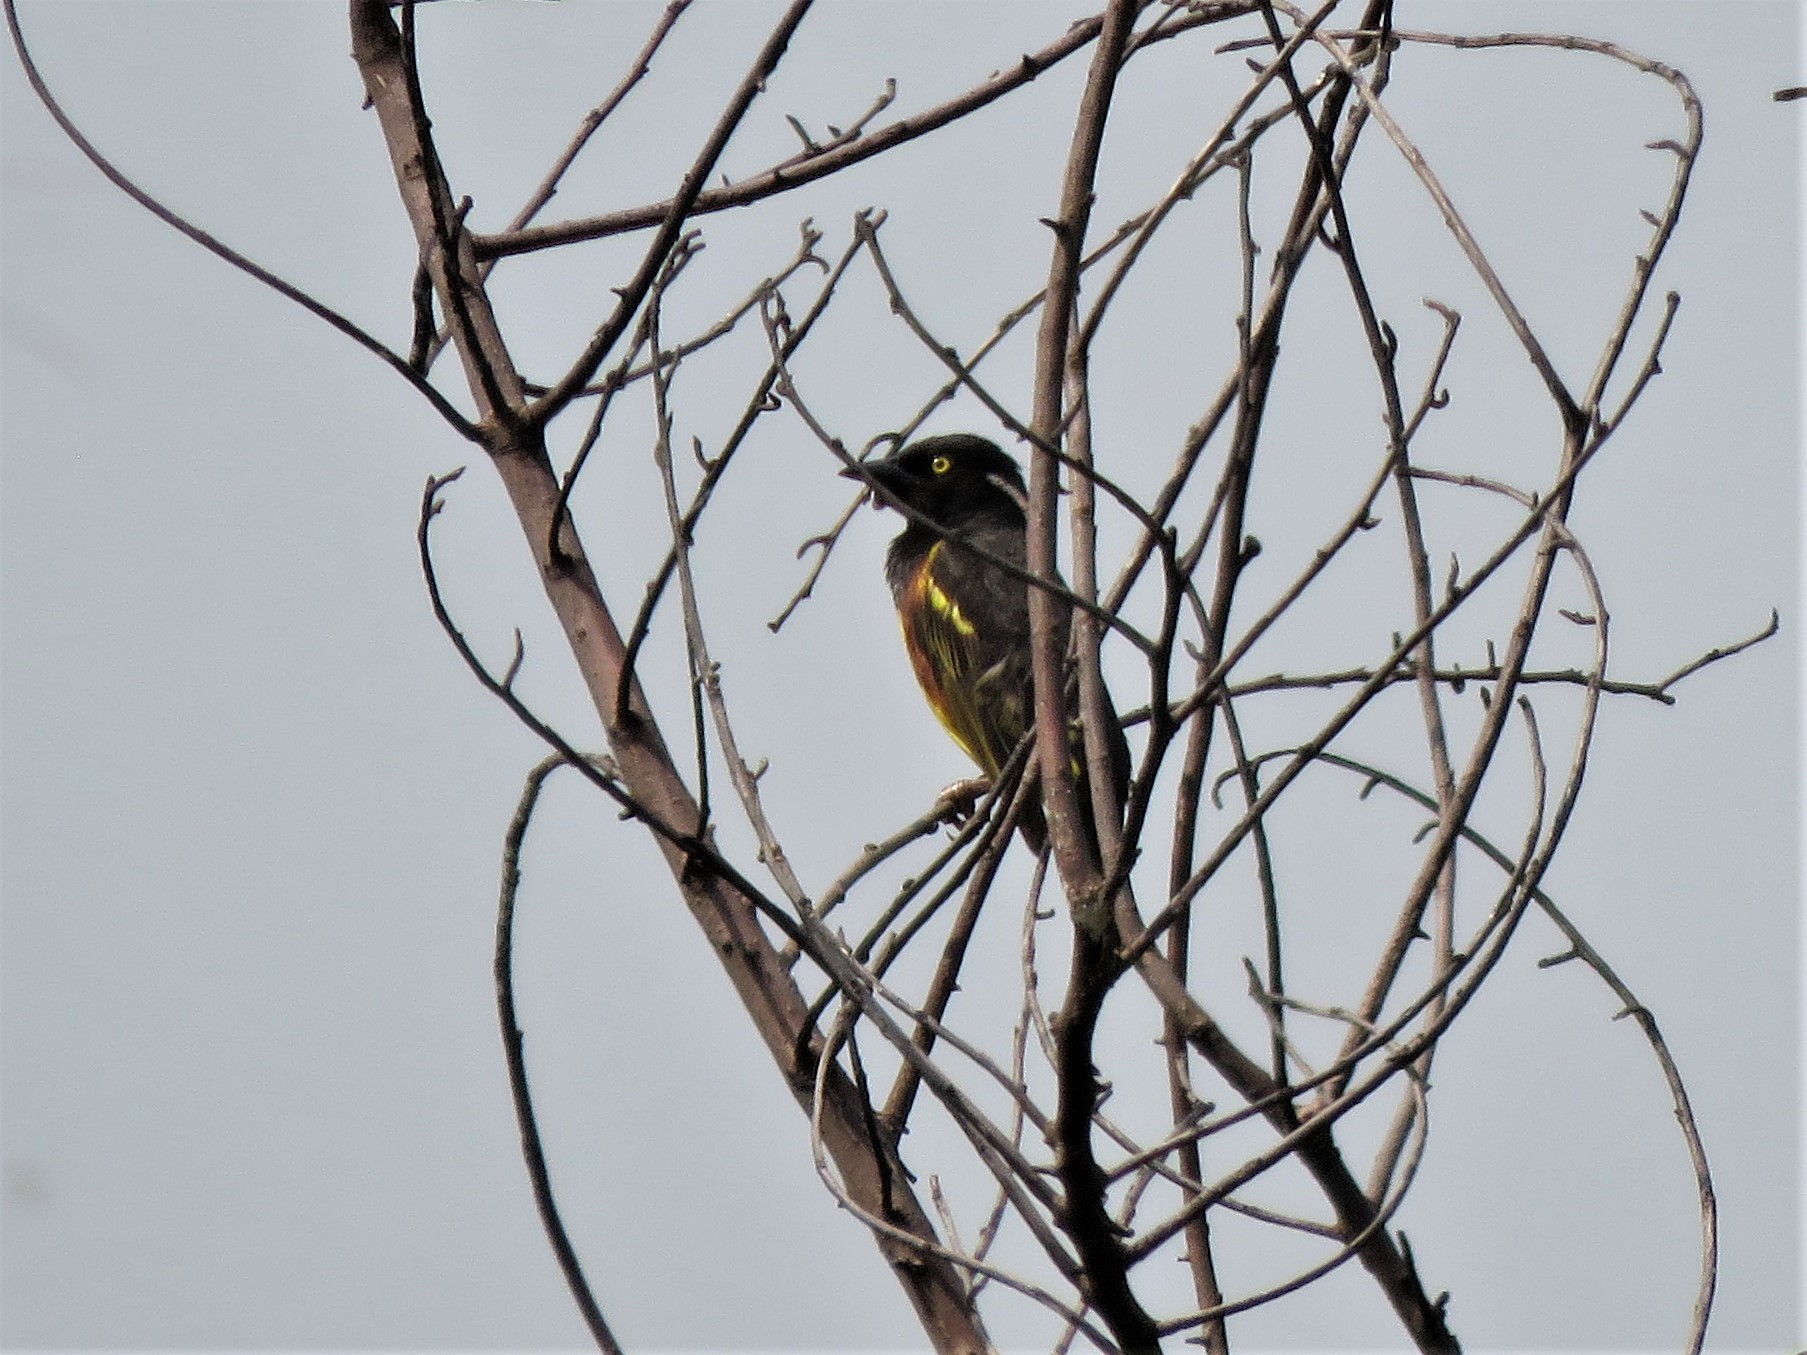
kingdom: Animalia
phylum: Chordata
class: Aves
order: Passeriformes
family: Ploceidae
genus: Ploceus
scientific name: Ploceus weynsi
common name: Weyns's weaver
